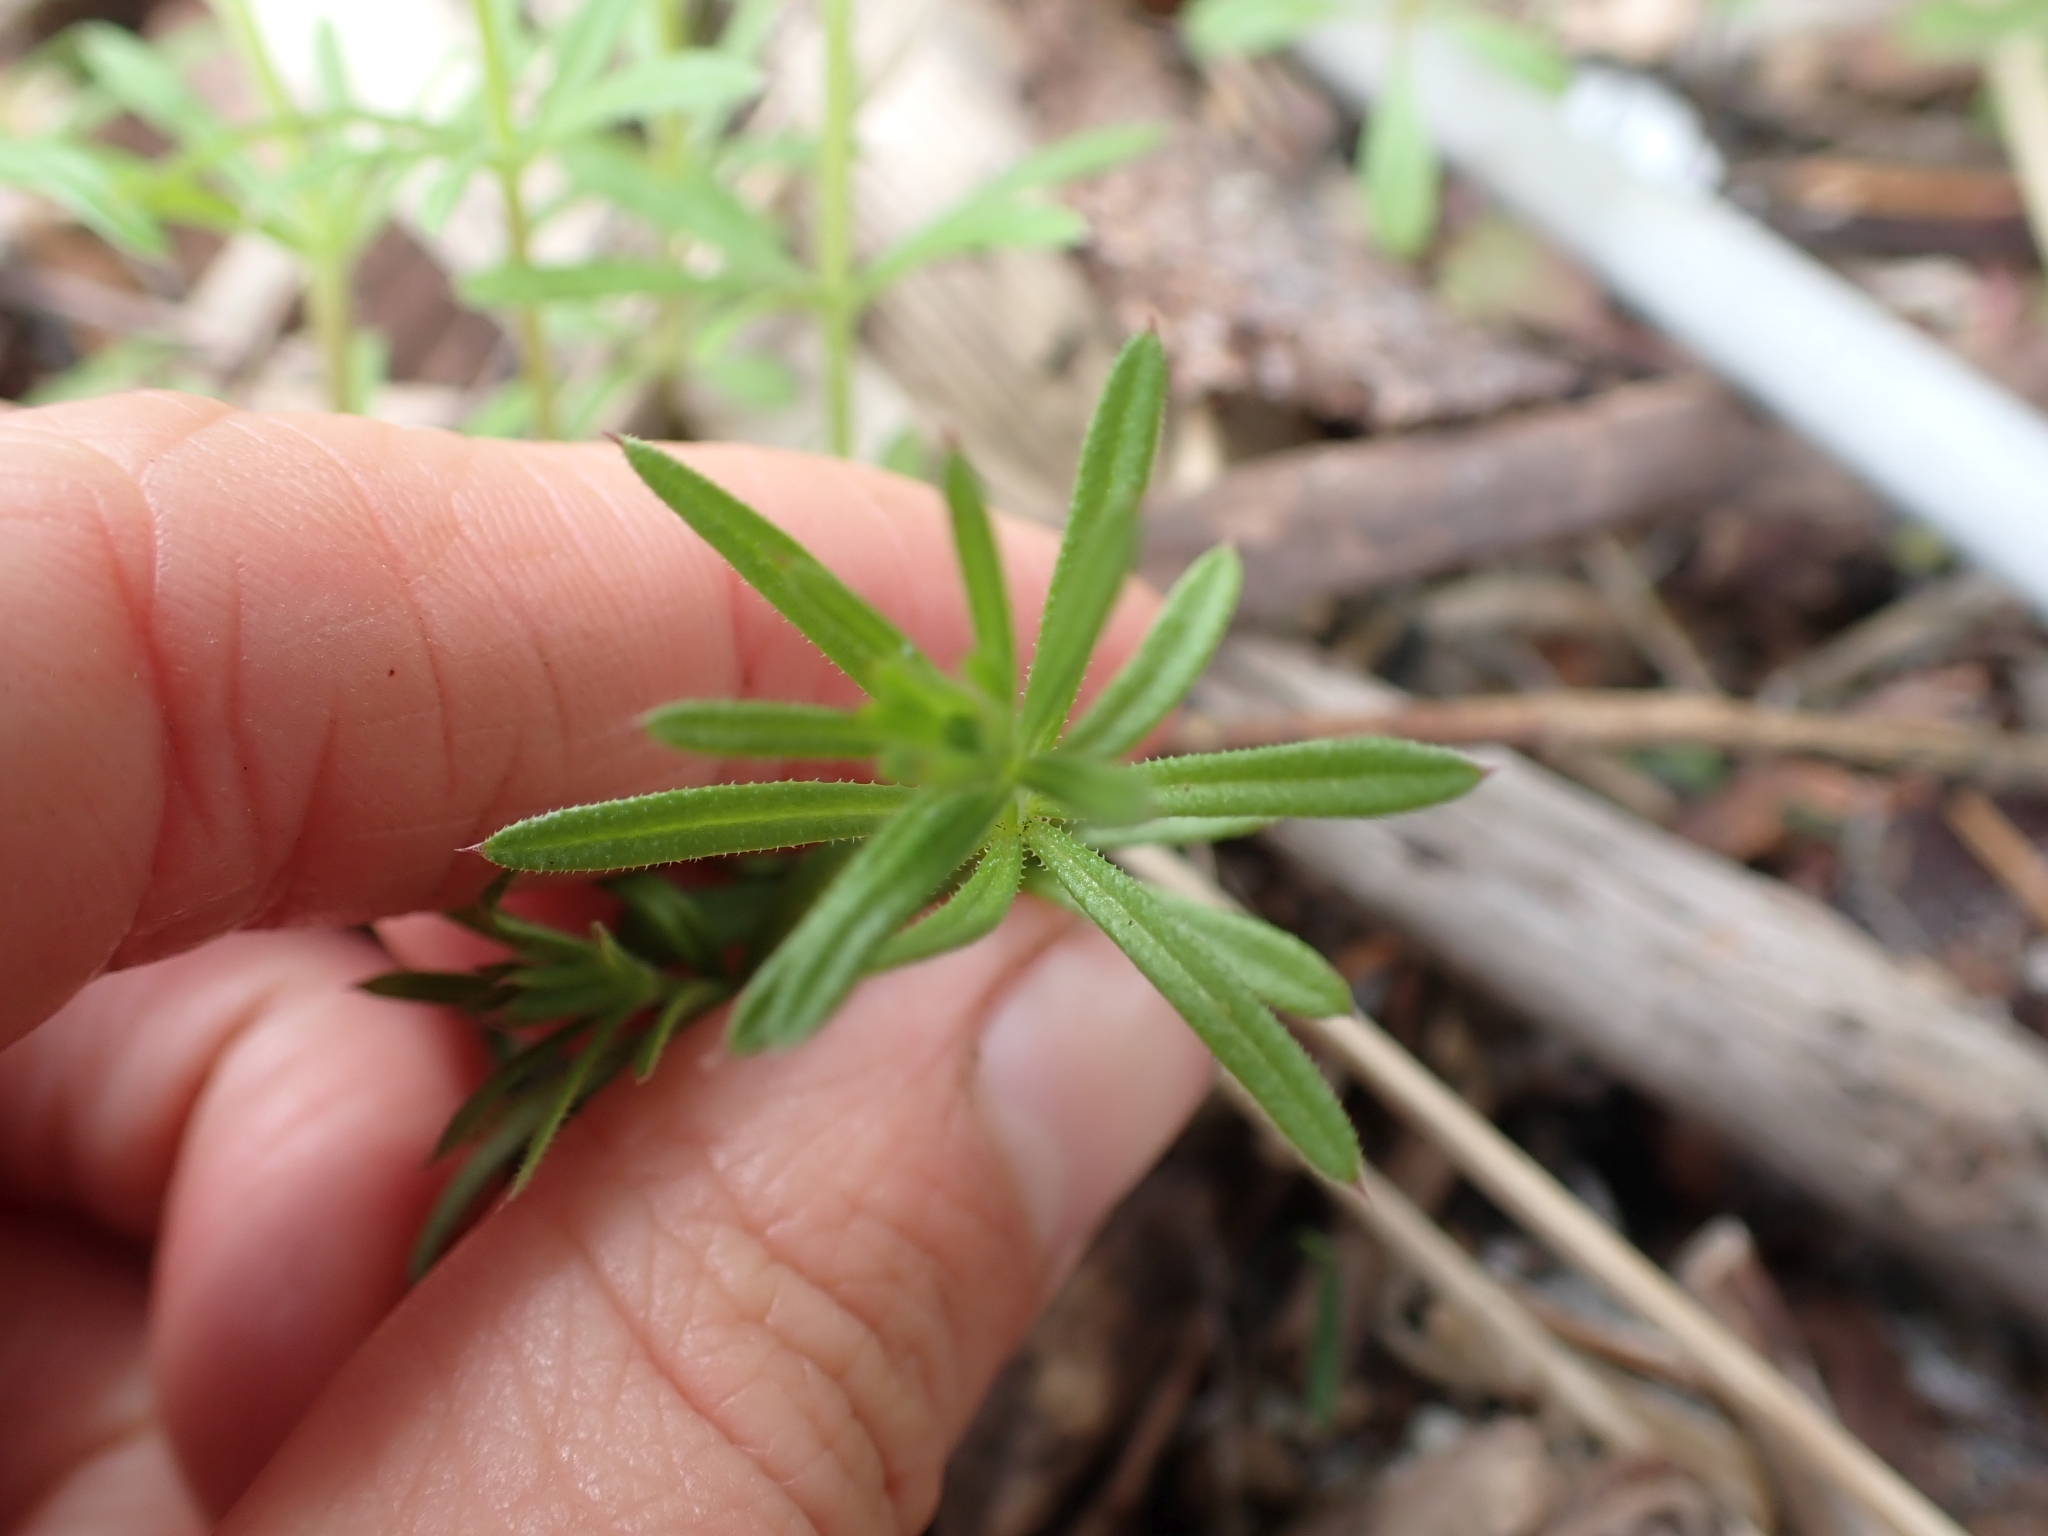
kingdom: Plantae
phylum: Tracheophyta
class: Magnoliopsida
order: Gentianales
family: Rubiaceae
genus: Galium
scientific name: Galium aparine
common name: Cleavers
